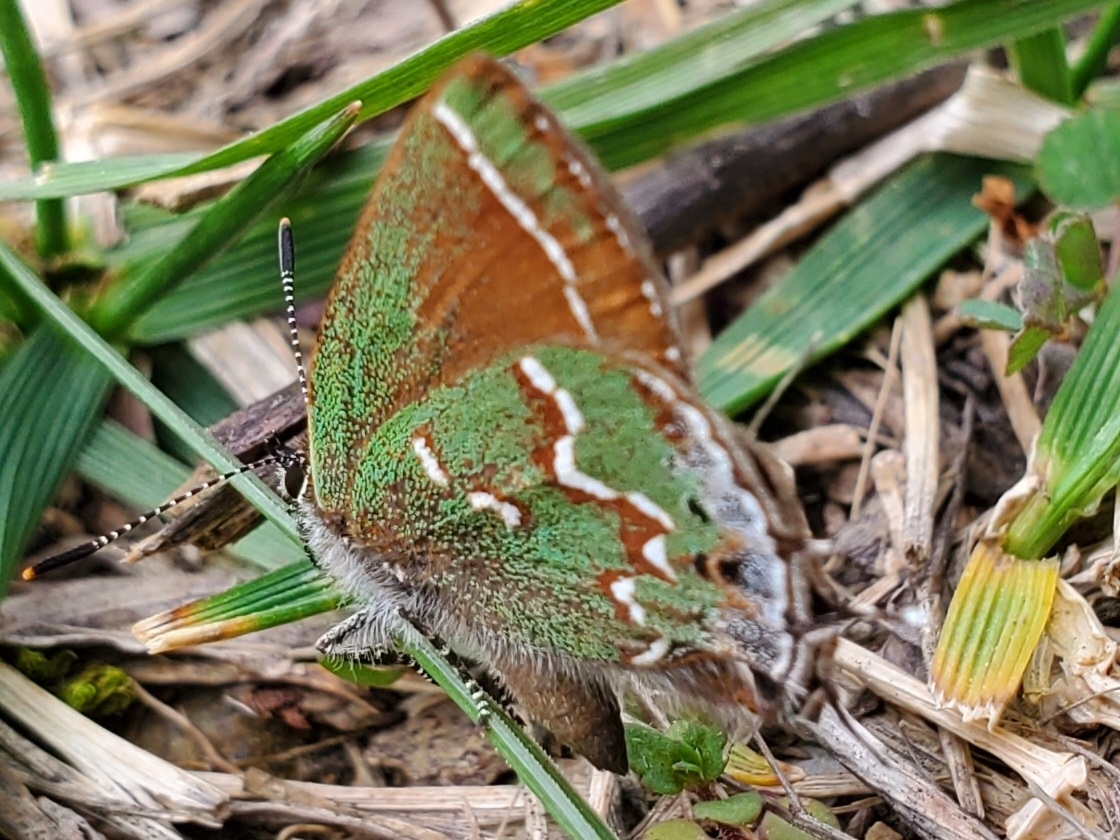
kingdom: Animalia
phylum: Arthropoda
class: Insecta
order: Lepidoptera
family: Lycaenidae
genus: Mitoura
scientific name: Mitoura gryneus
